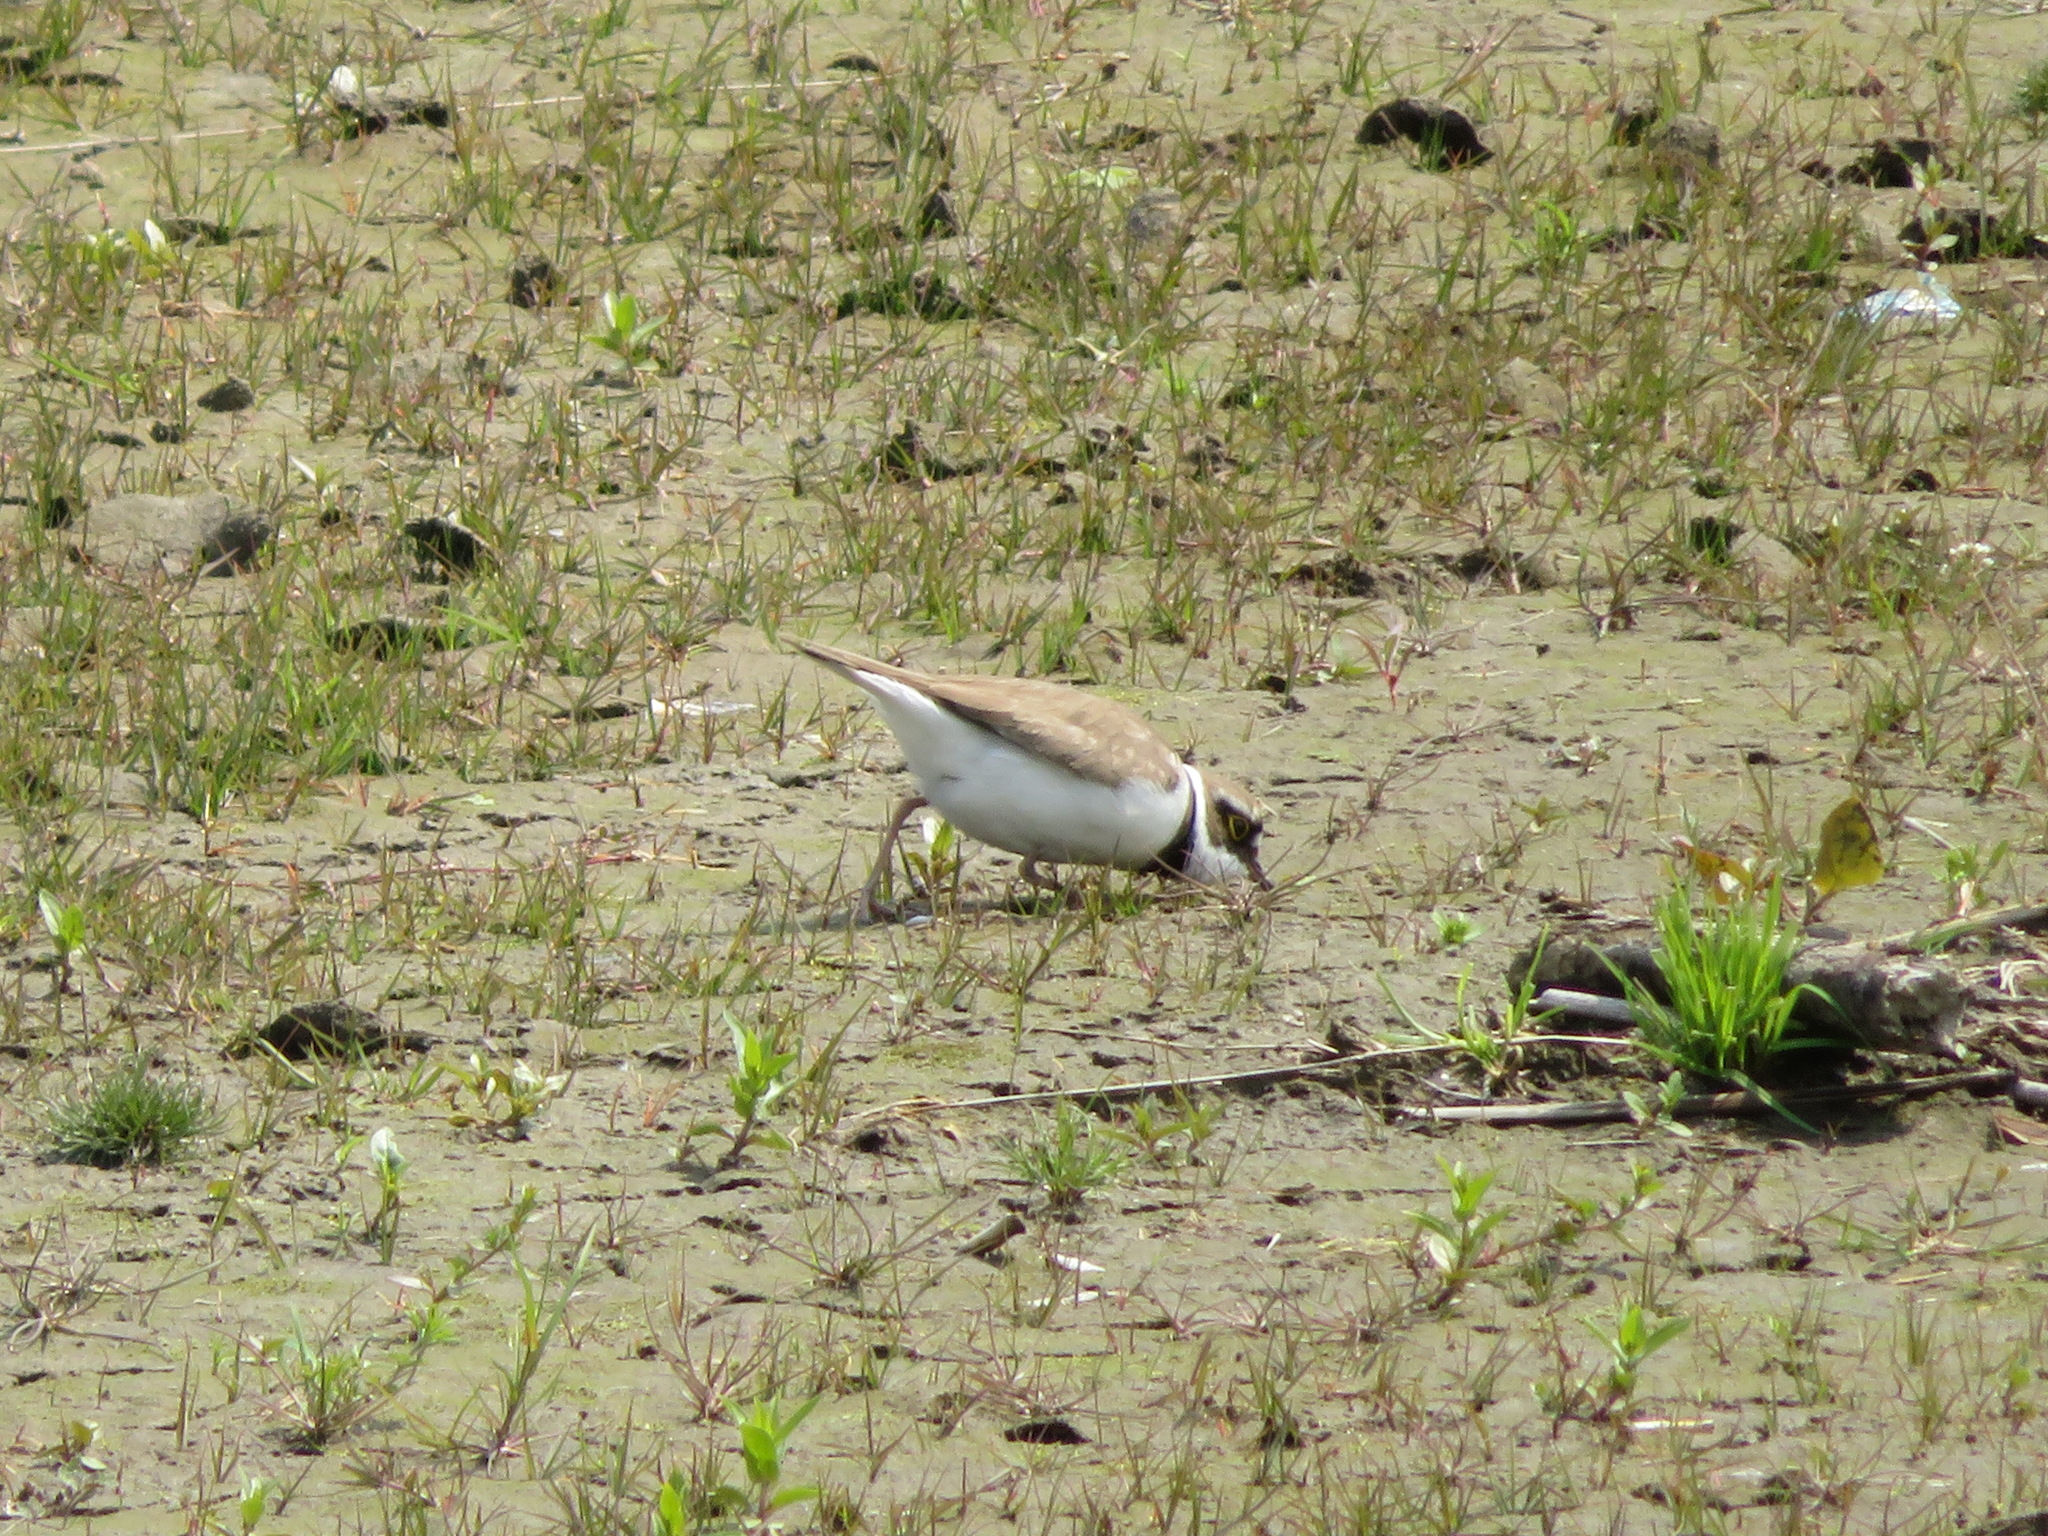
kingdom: Animalia
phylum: Chordata
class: Aves
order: Charadriiformes
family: Charadriidae
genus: Charadrius
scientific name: Charadrius dubius
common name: Little ringed plover
